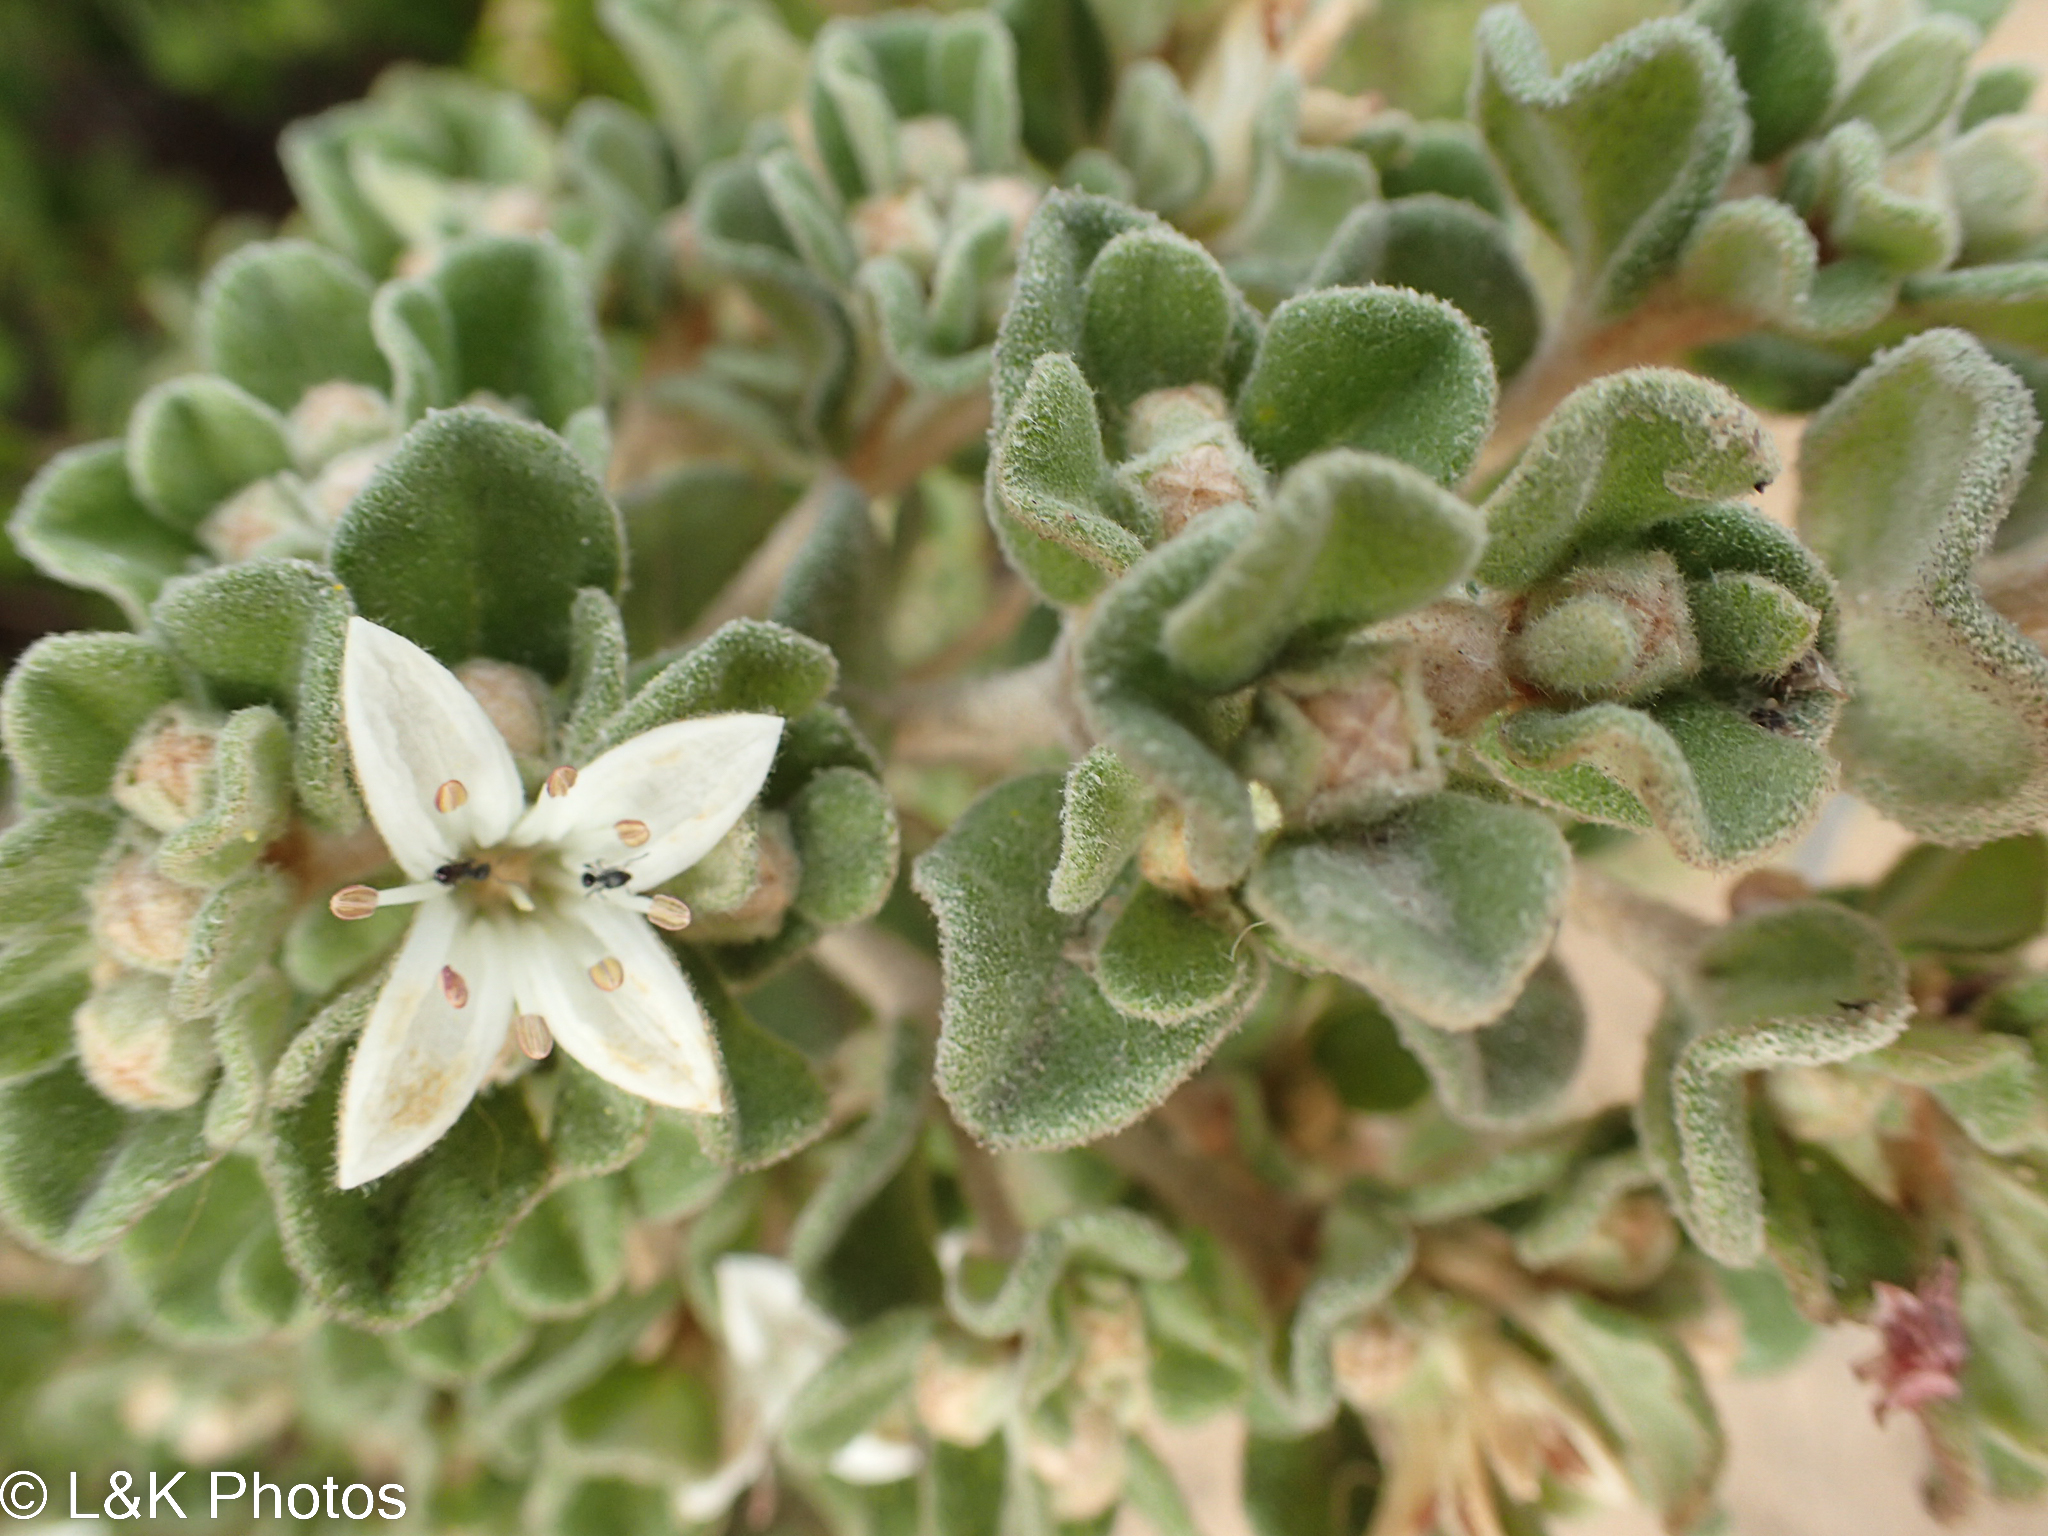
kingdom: Plantae
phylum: Tracheophyta
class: Magnoliopsida
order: Sapindales
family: Rutaceae
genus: Correa
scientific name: Correa alba
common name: White correa
